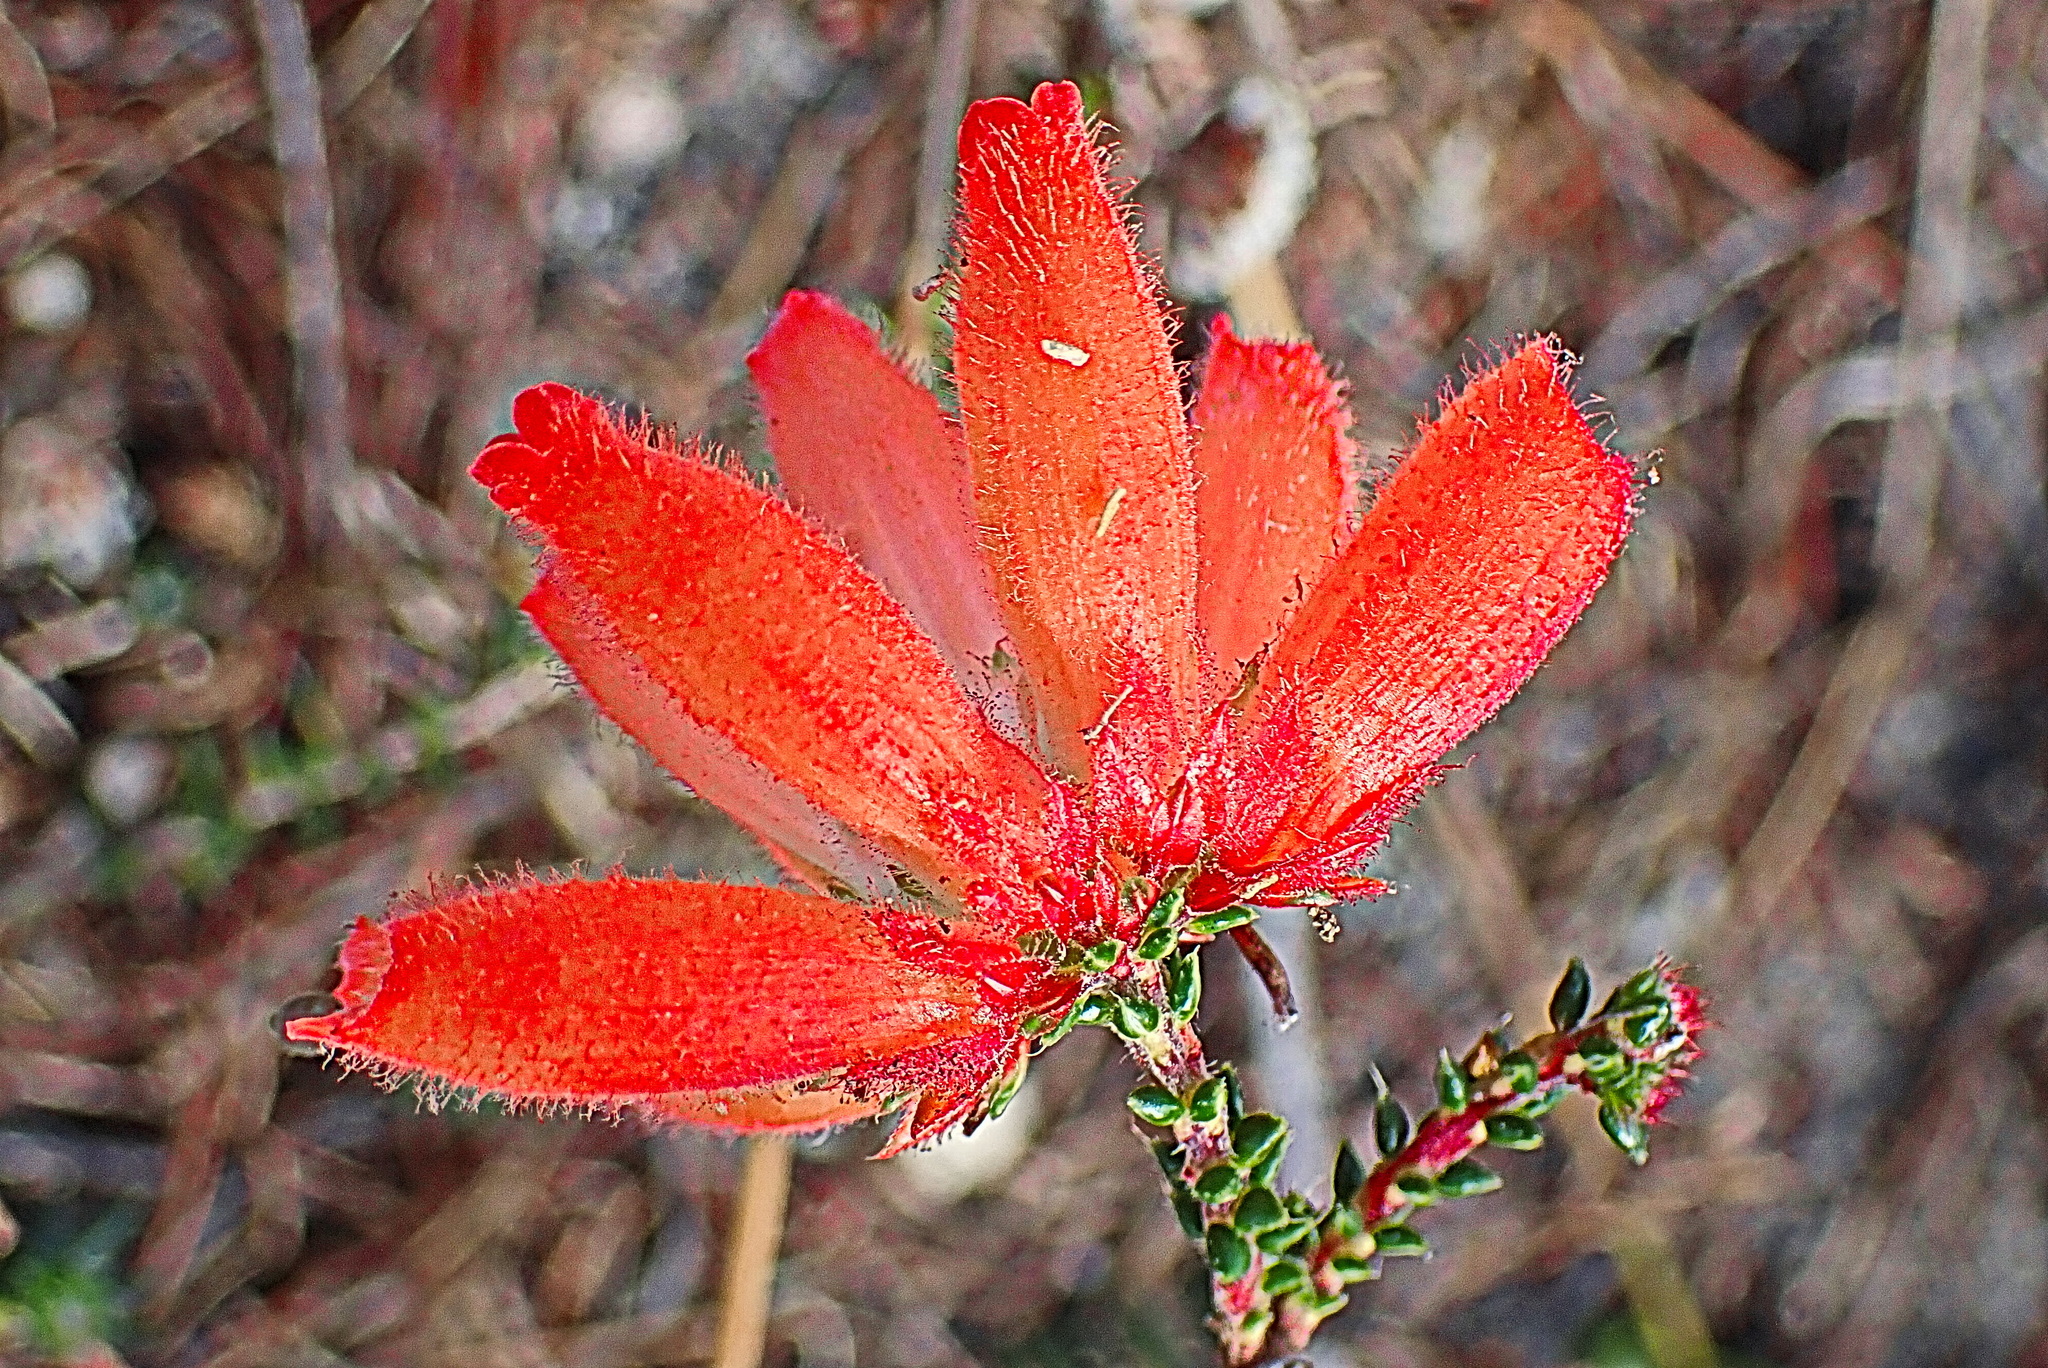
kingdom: Plantae
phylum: Tracheophyta
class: Magnoliopsida
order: Ericales
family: Ericaceae
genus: Erica
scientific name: Erica cerinthoides
